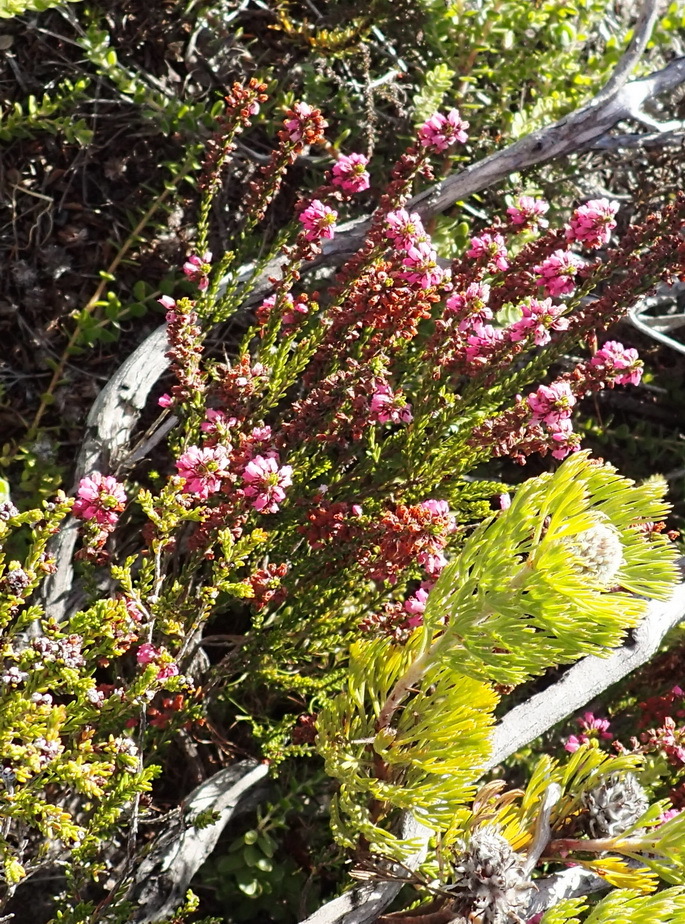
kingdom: Plantae
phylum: Tracheophyta
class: Magnoliopsida
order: Ericales
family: Ericaceae
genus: Erica
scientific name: Erica pulchella
